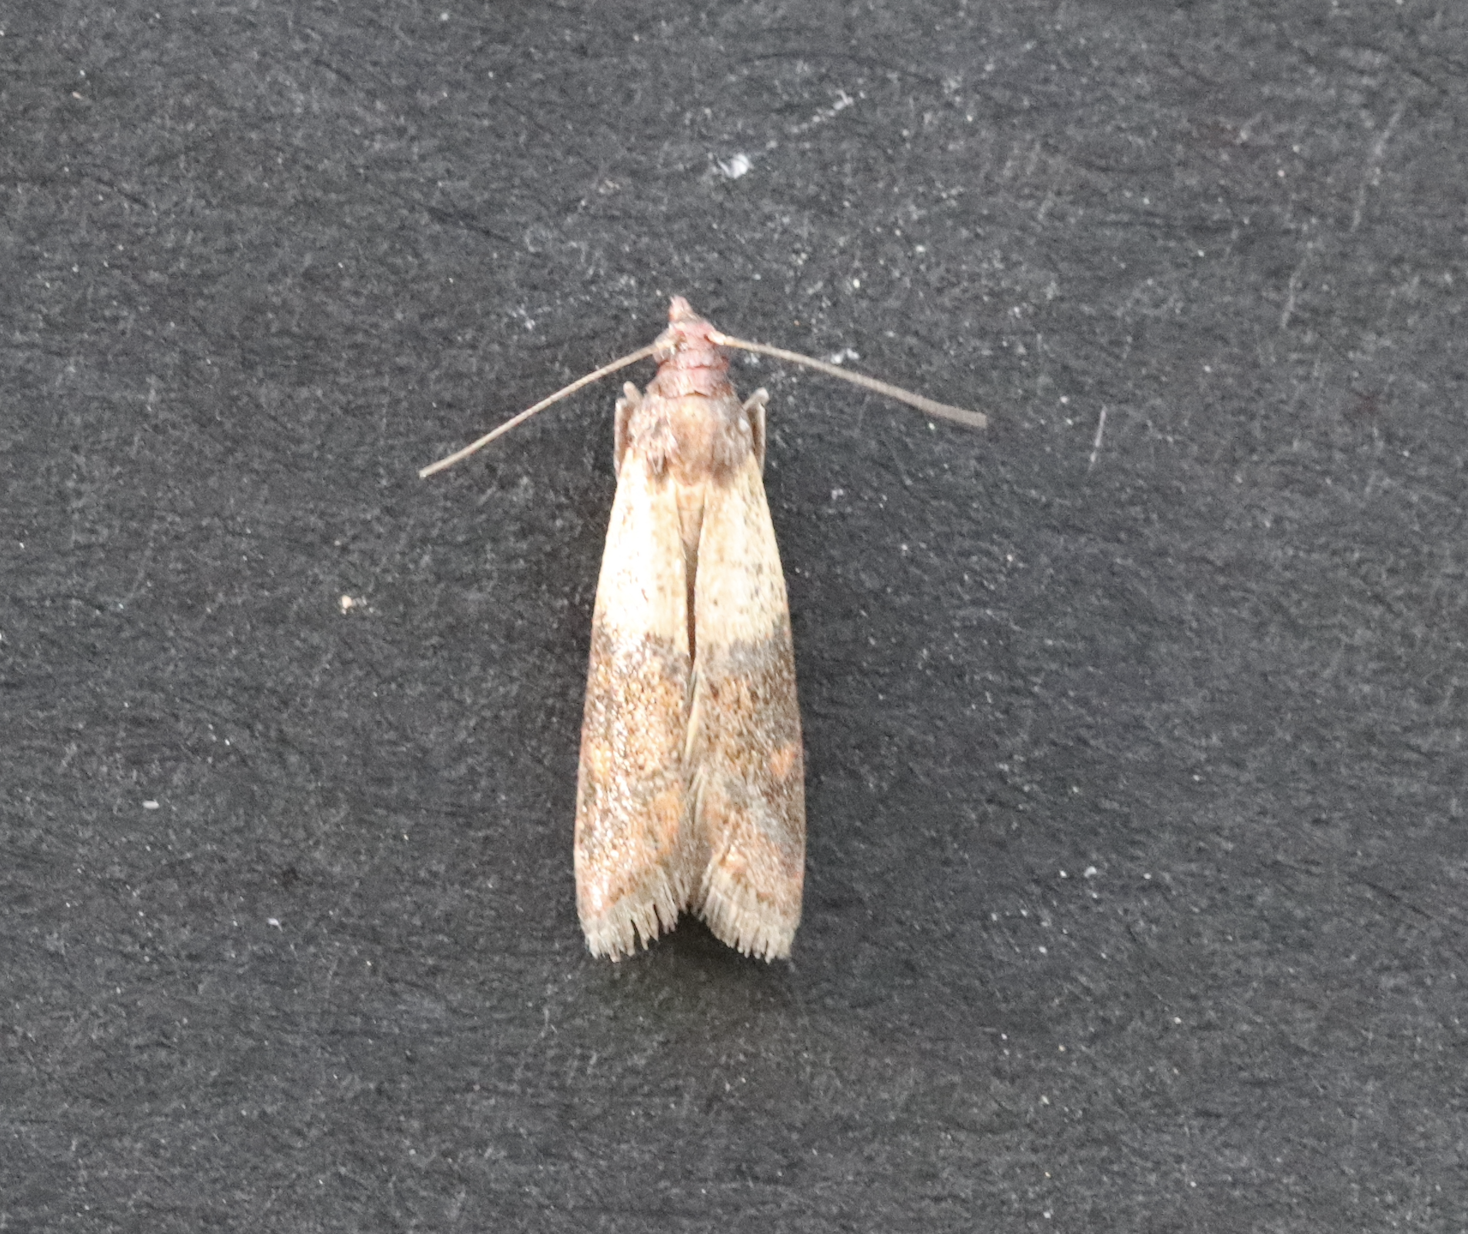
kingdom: Animalia
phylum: Arthropoda
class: Insecta
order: Lepidoptera
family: Pyralidae
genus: Plodia
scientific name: Plodia interpunctella
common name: Indian meal moth
